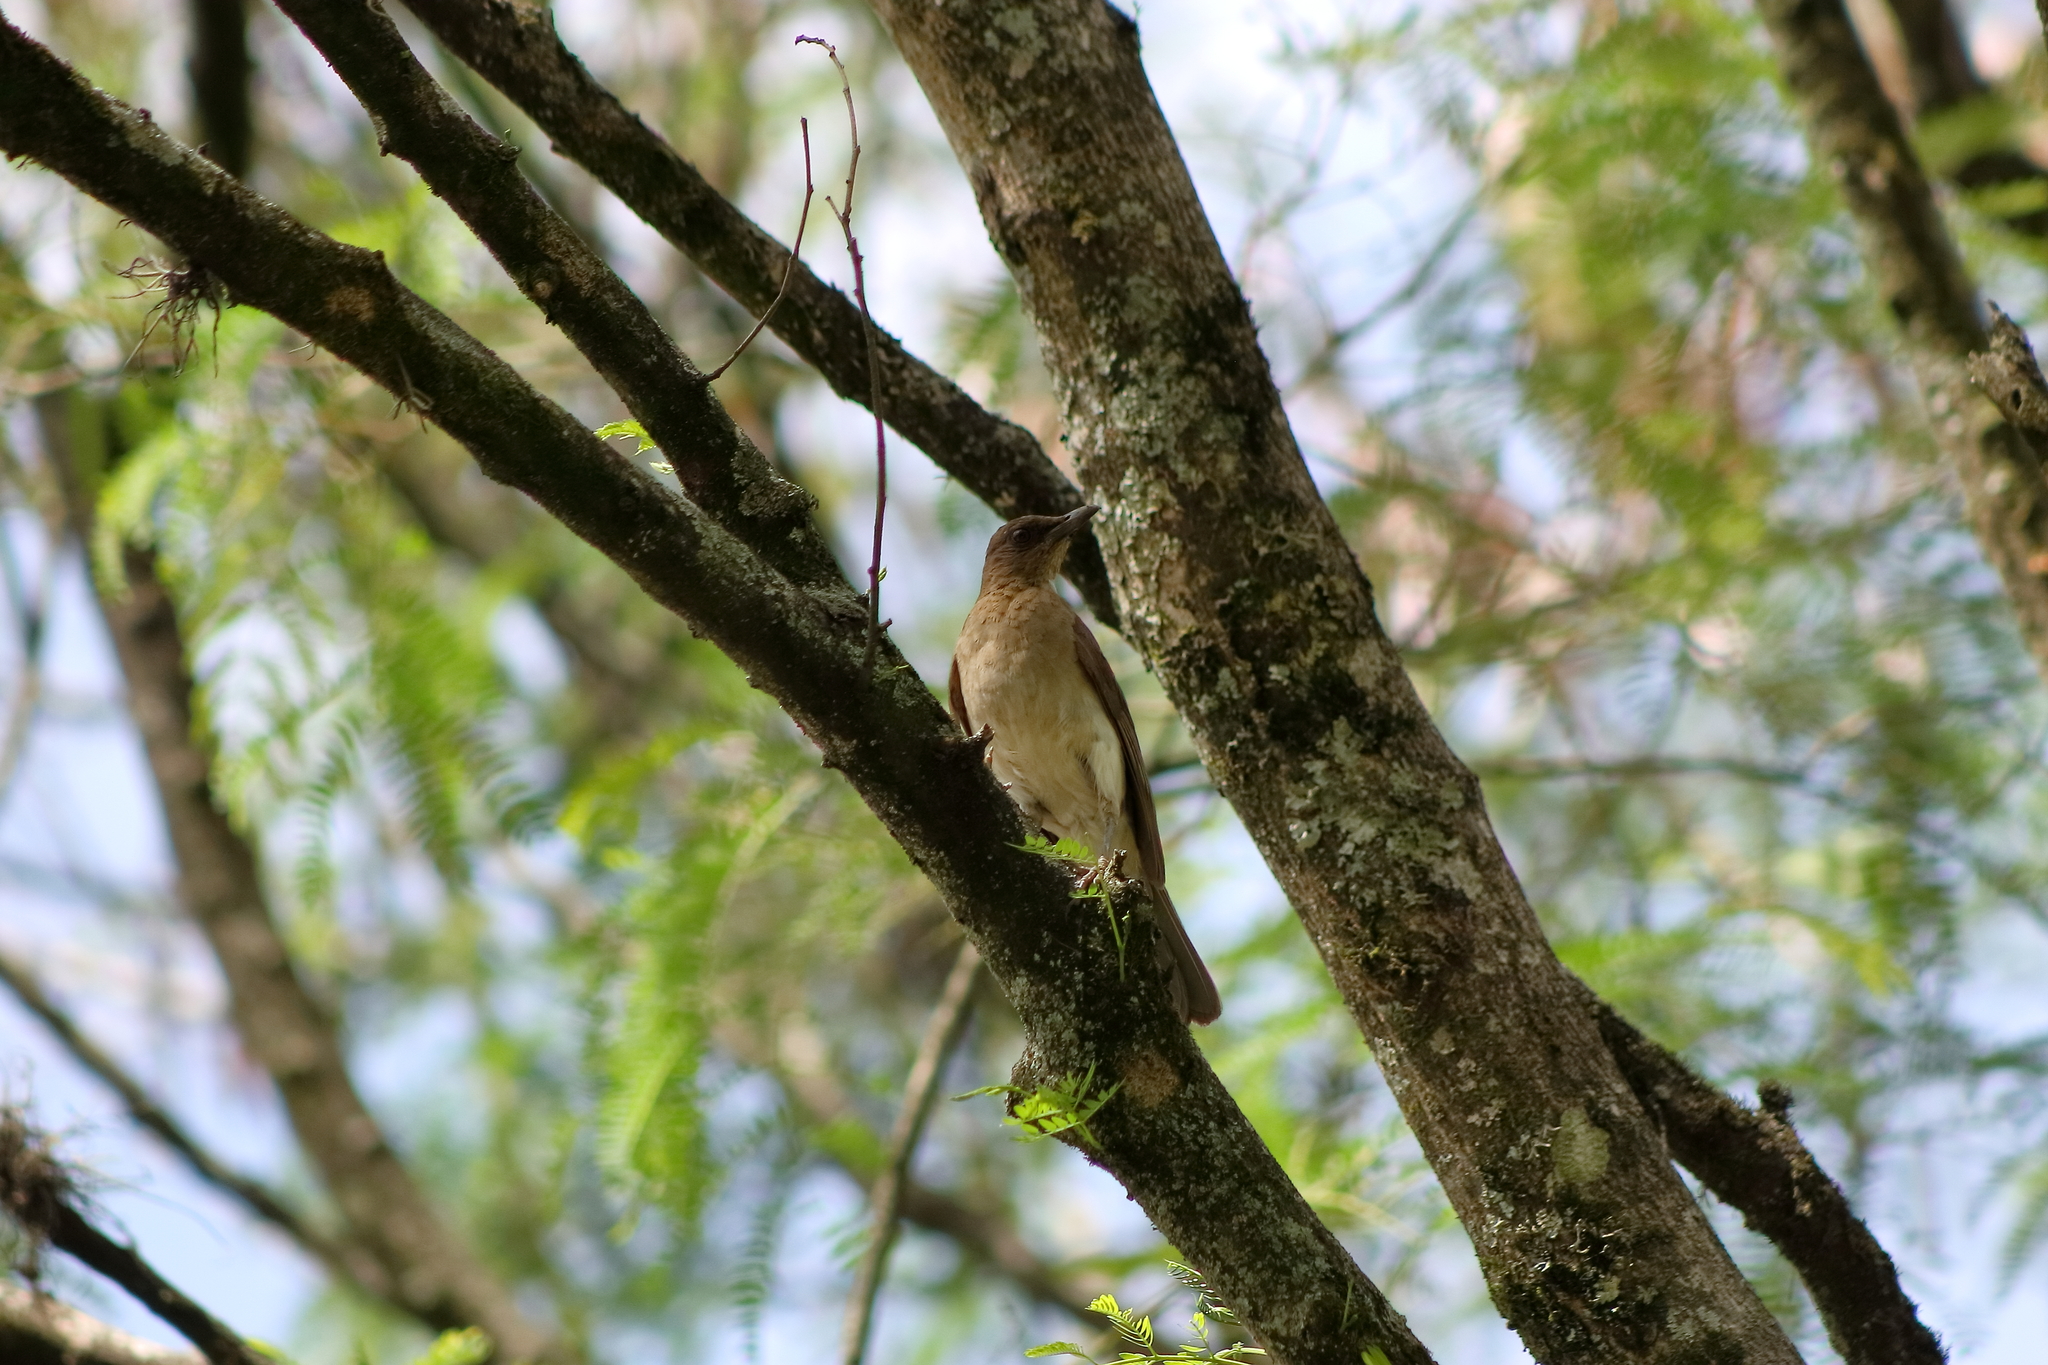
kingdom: Animalia
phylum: Chordata
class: Aves
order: Passeriformes
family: Turdidae
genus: Turdus
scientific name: Turdus ignobilis
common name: Black-billed thrush
